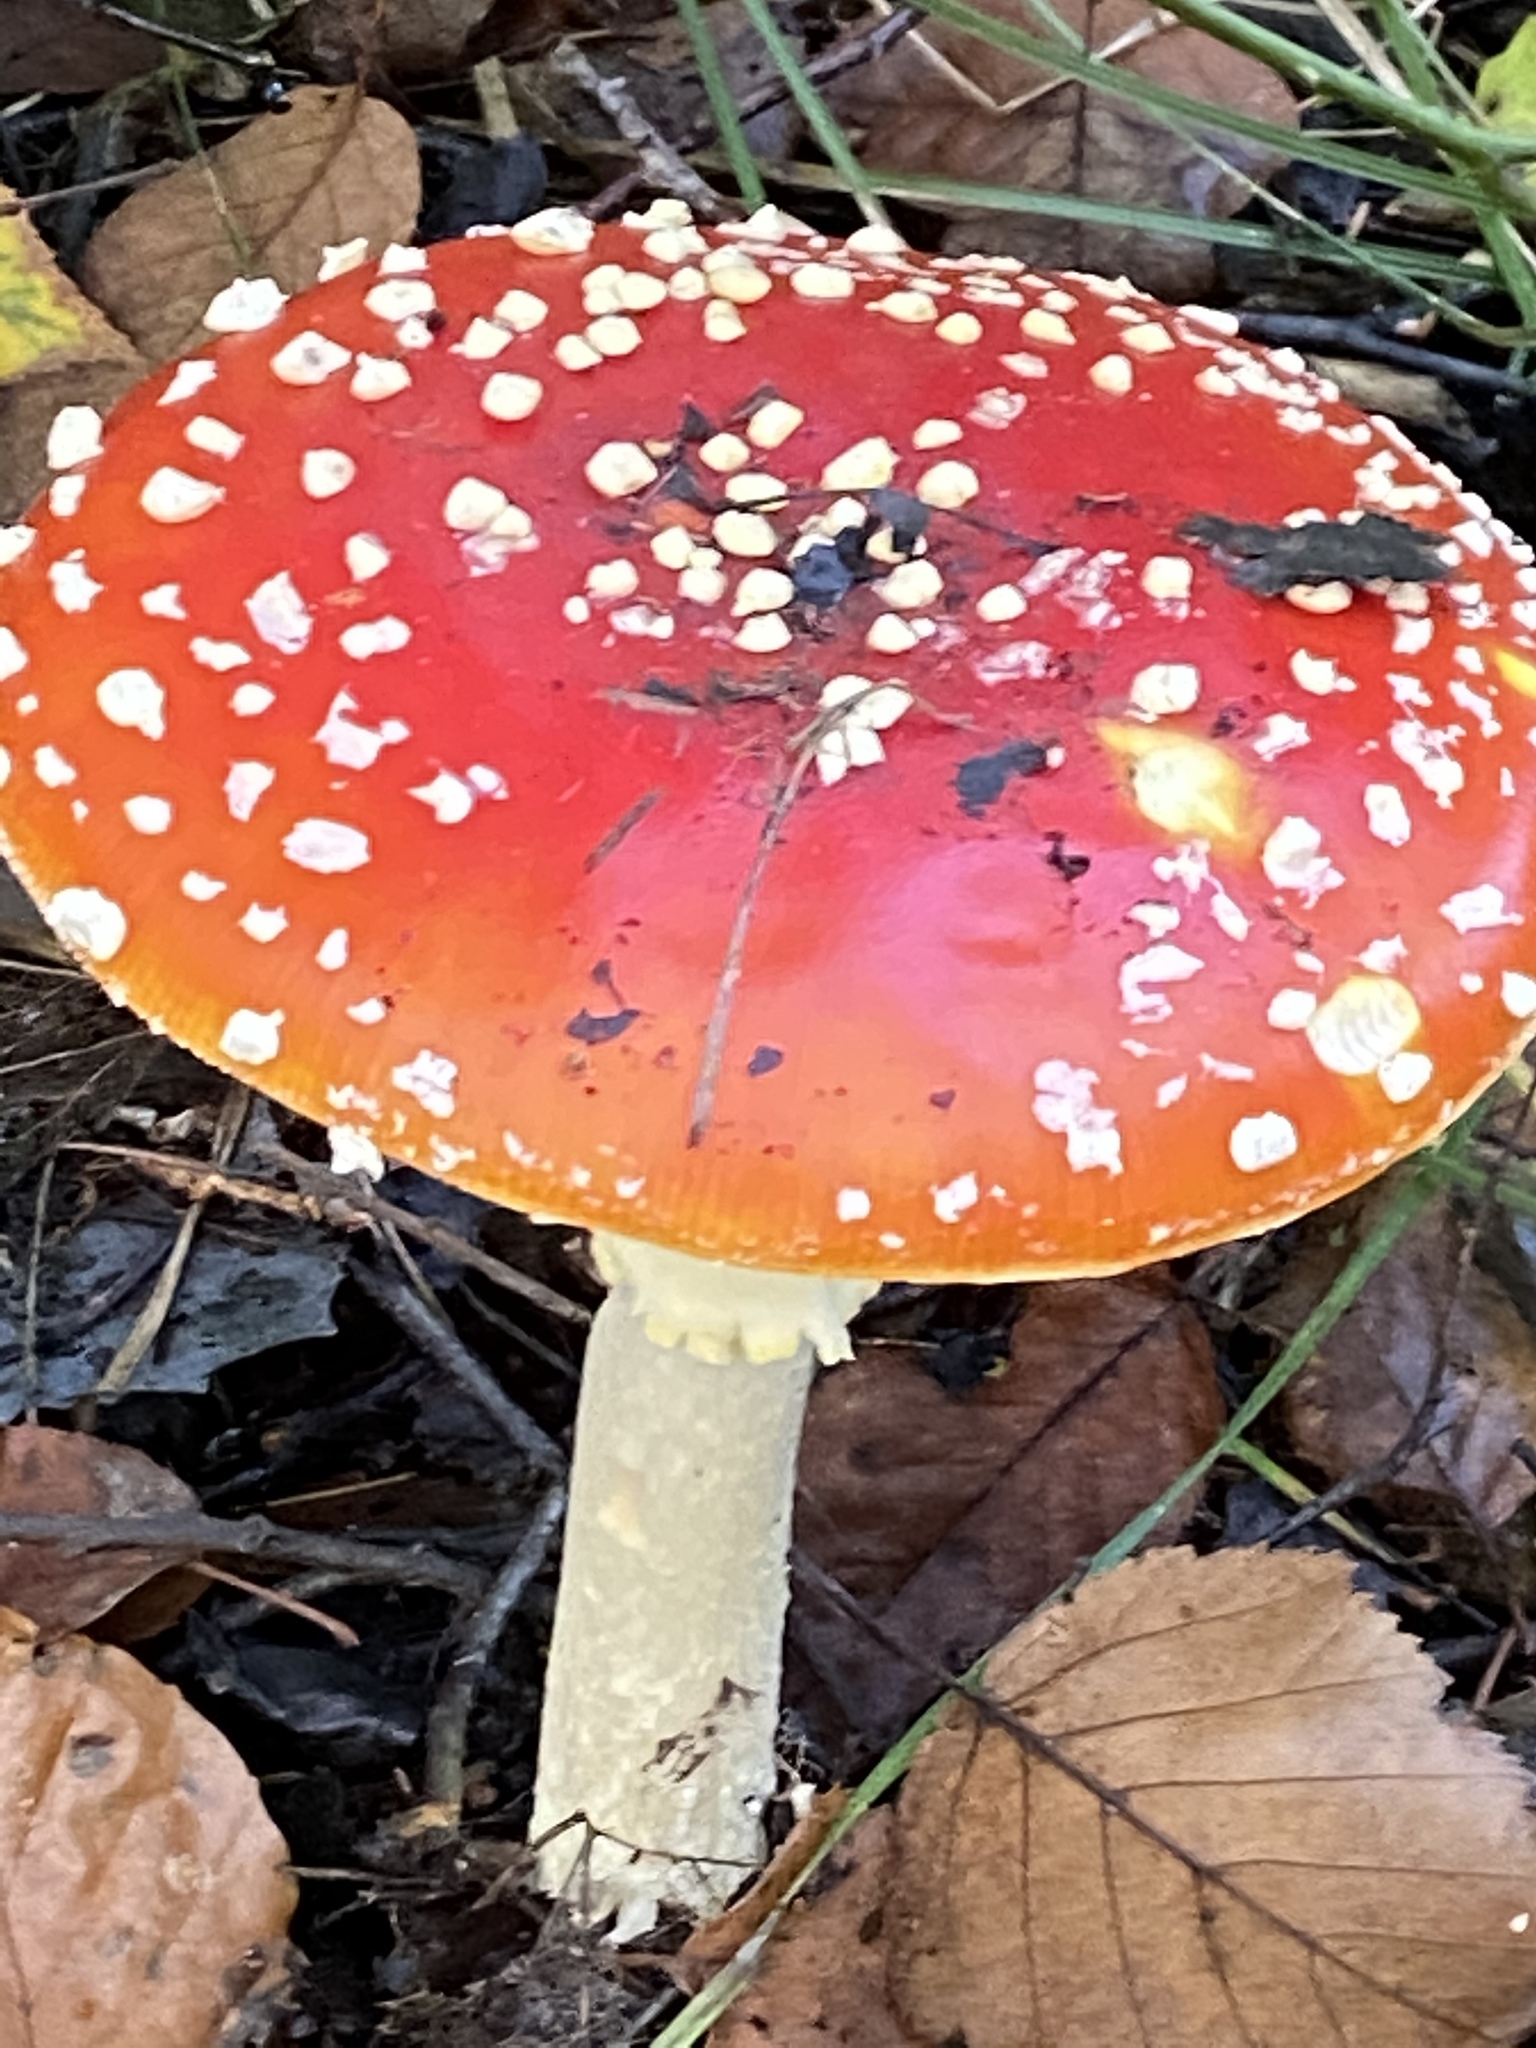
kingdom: Fungi
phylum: Basidiomycota
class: Agaricomycetes
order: Agaricales
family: Amanitaceae
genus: Amanita
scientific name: Amanita muscaria
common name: Fly agaric
